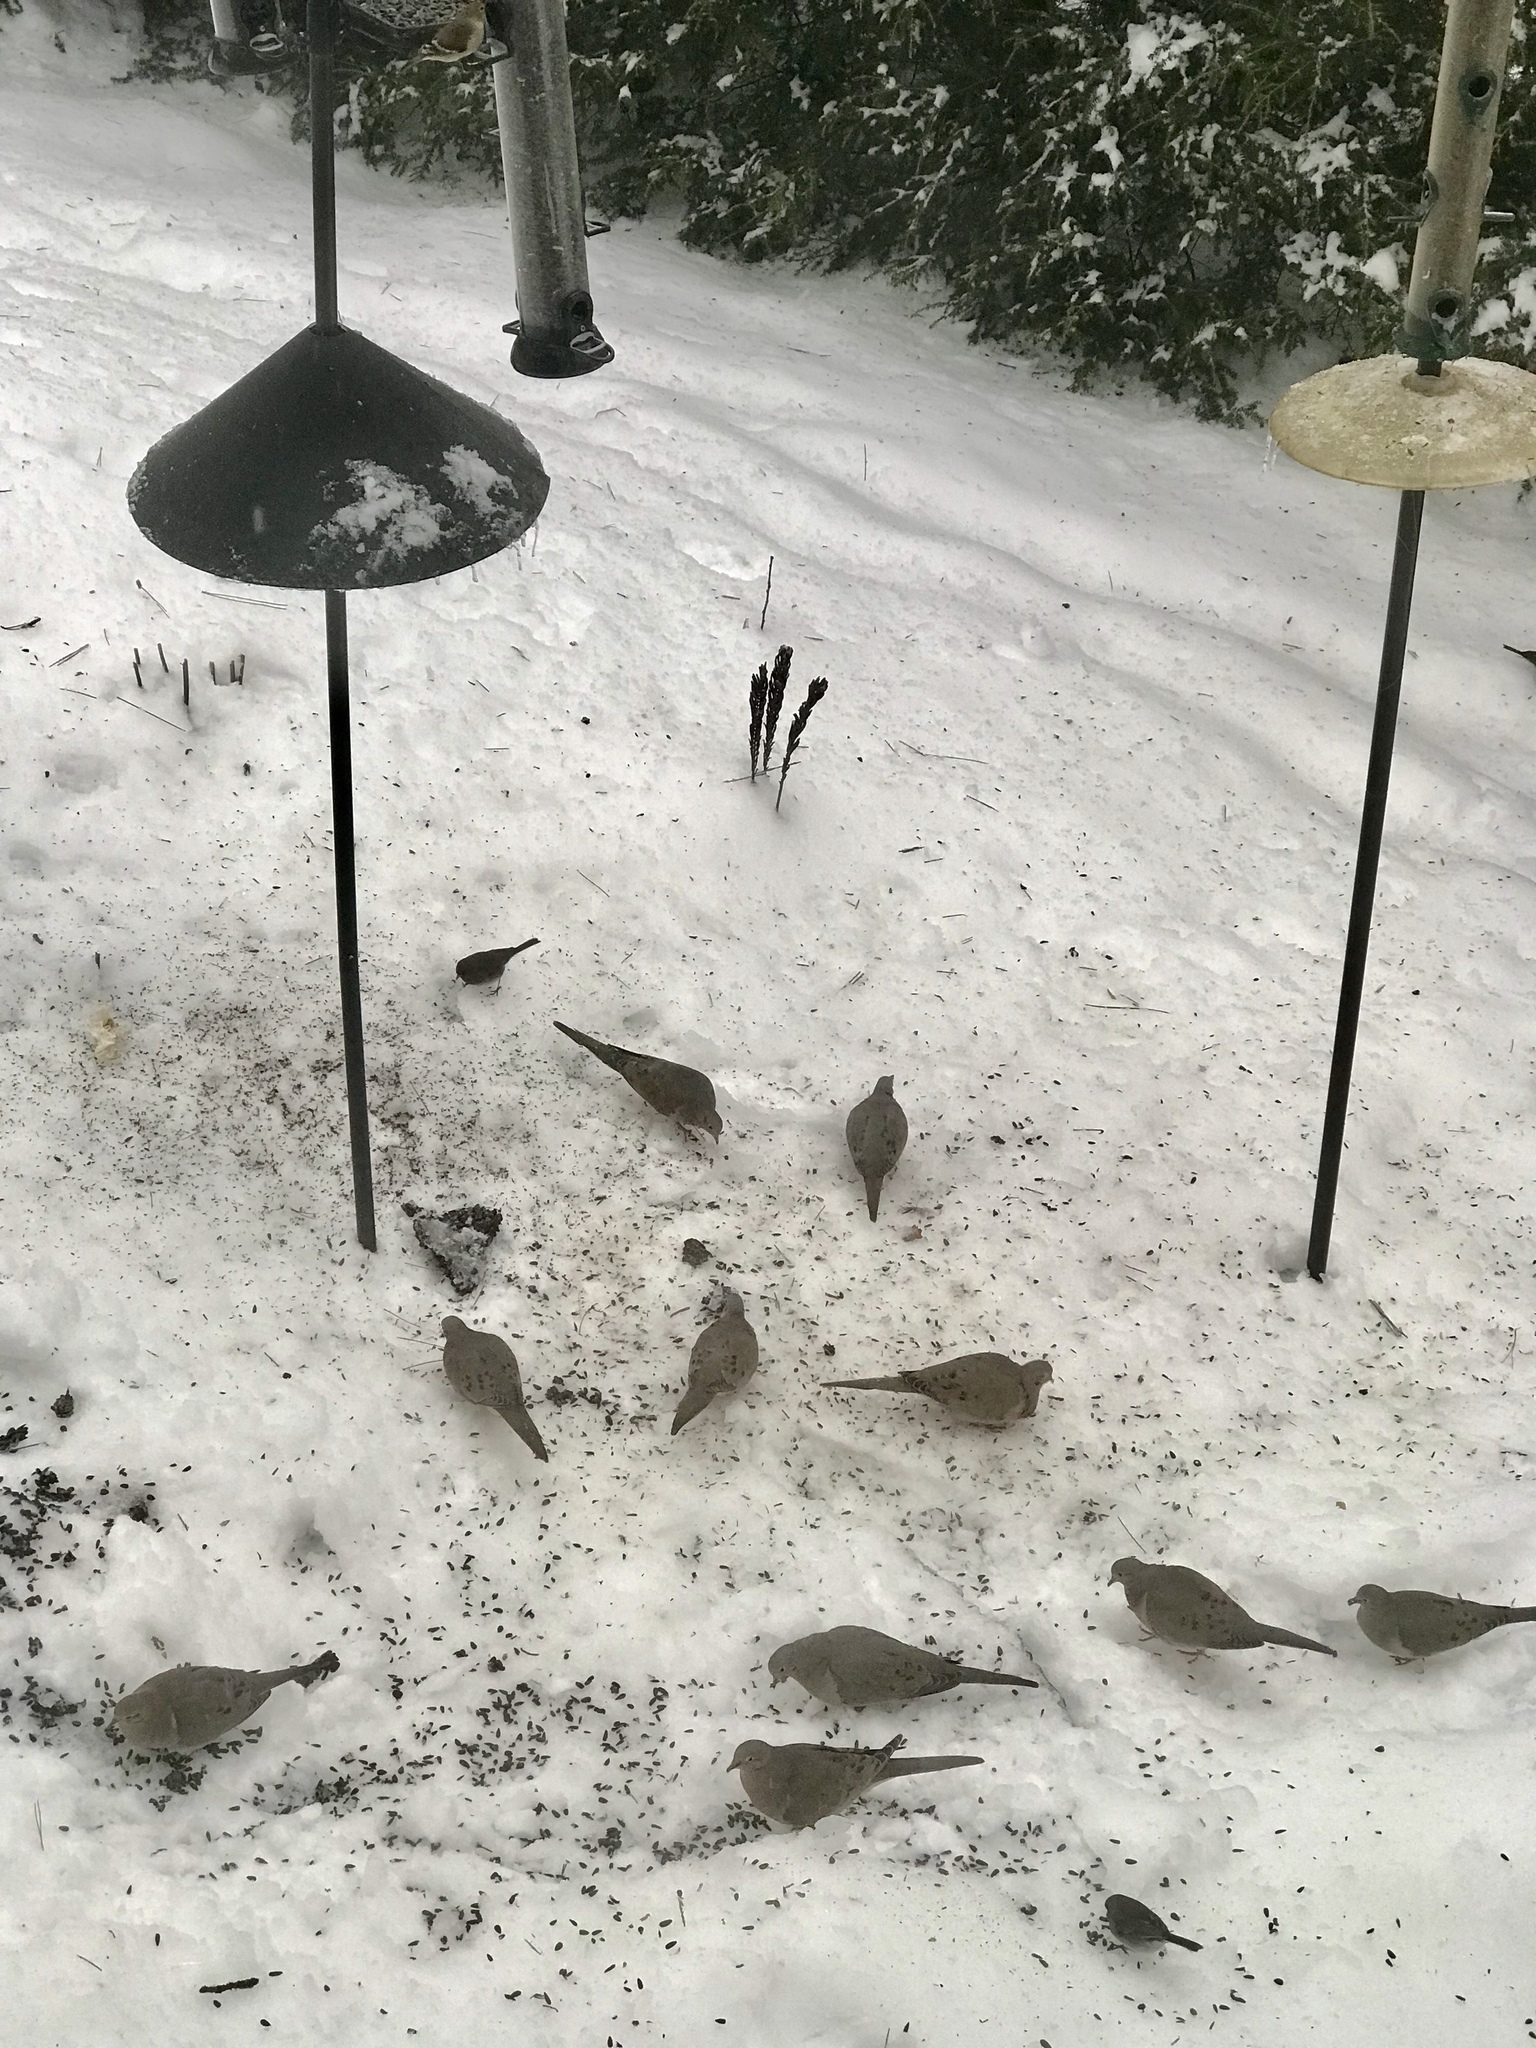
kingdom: Animalia
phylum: Chordata
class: Aves
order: Columbiformes
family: Columbidae
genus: Zenaida
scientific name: Zenaida macroura
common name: Mourning dove
